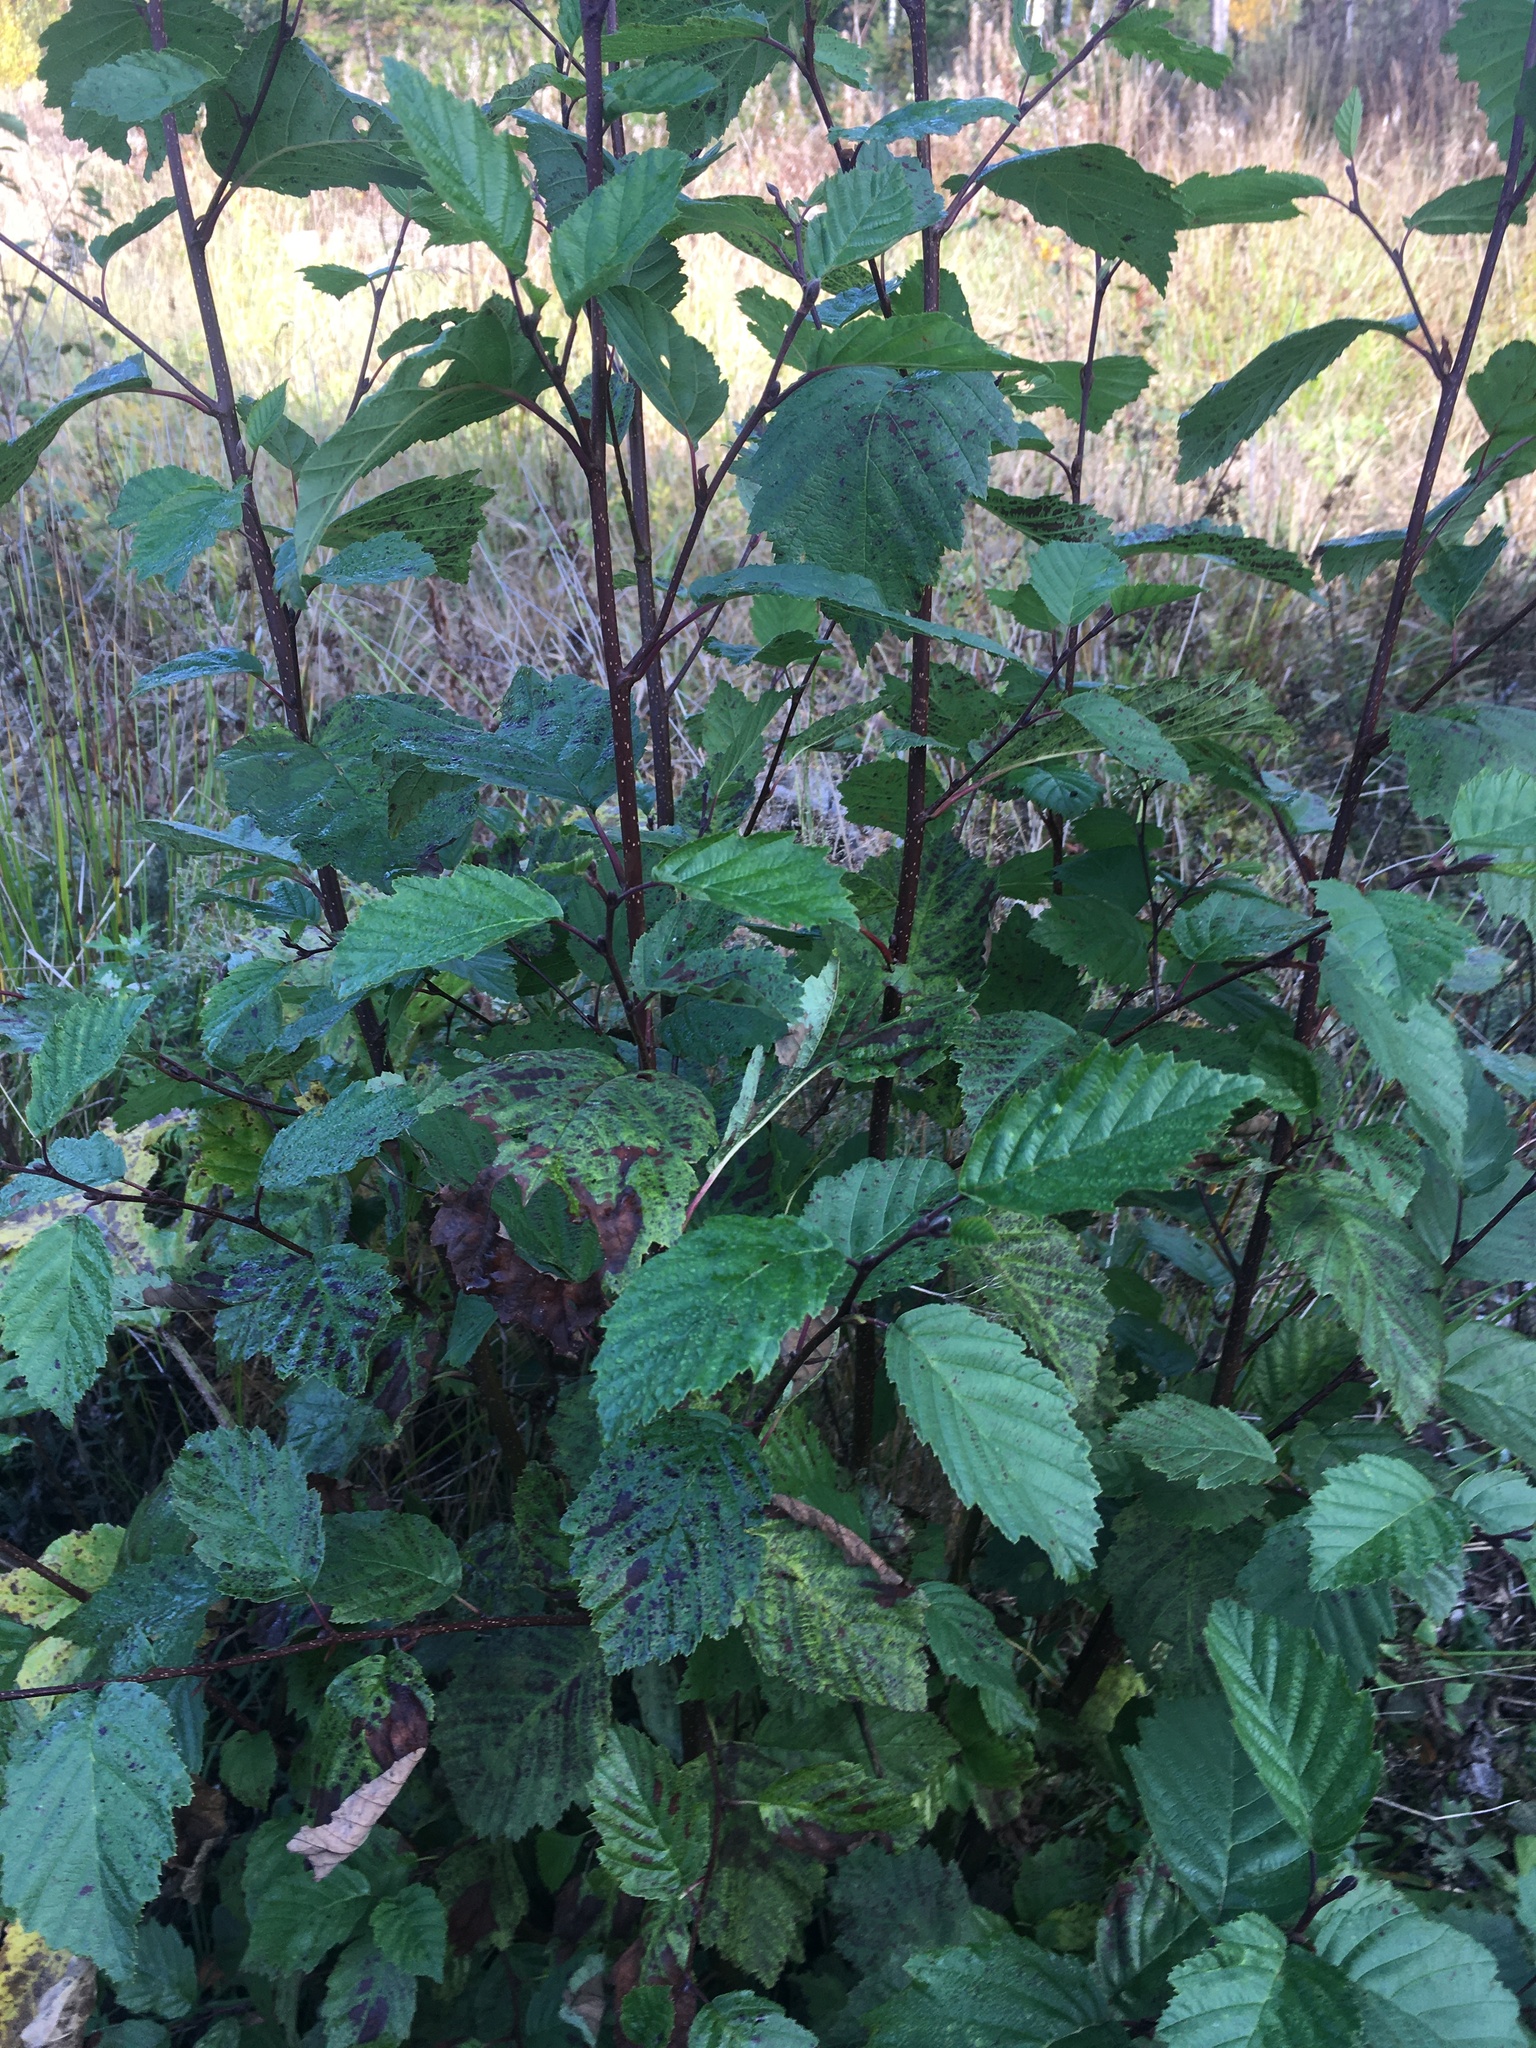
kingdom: Plantae
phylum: Tracheophyta
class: Magnoliopsida
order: Fagales
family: Betulaceae
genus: Alnus
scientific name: Alnus incana
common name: Grey alder
